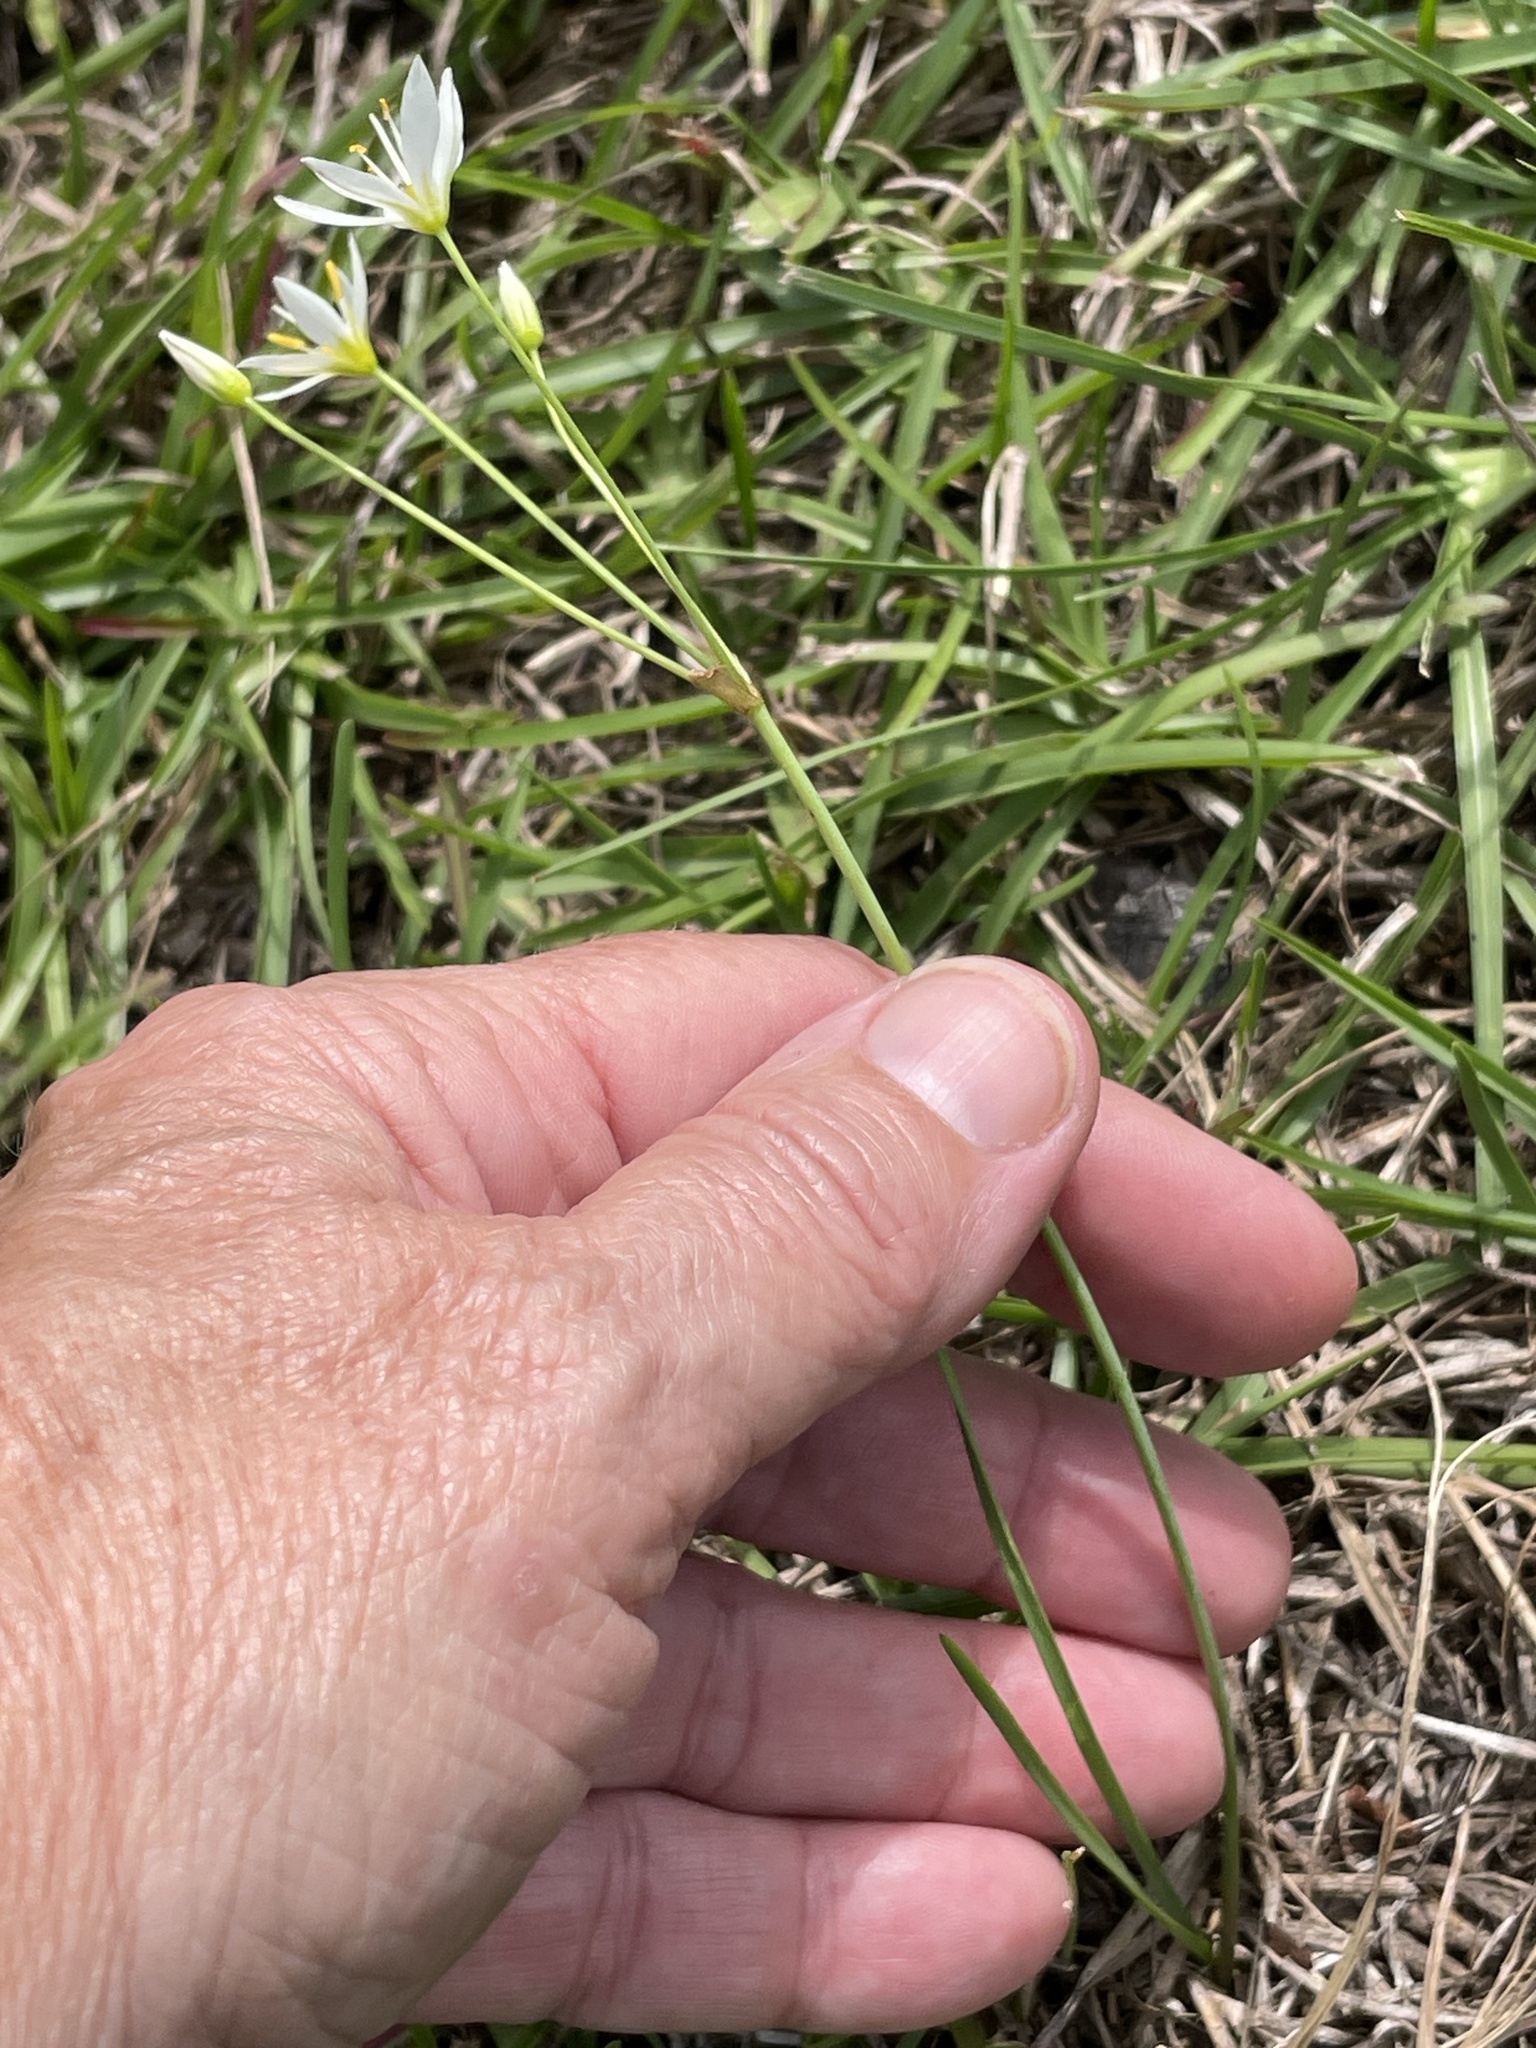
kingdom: Plantae
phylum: Tracheophyta
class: Liliopsida
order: Asparagales
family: Amaryllidaceae
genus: Nothoscordum
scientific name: Nothoscordum bivalve
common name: Crow-poison
